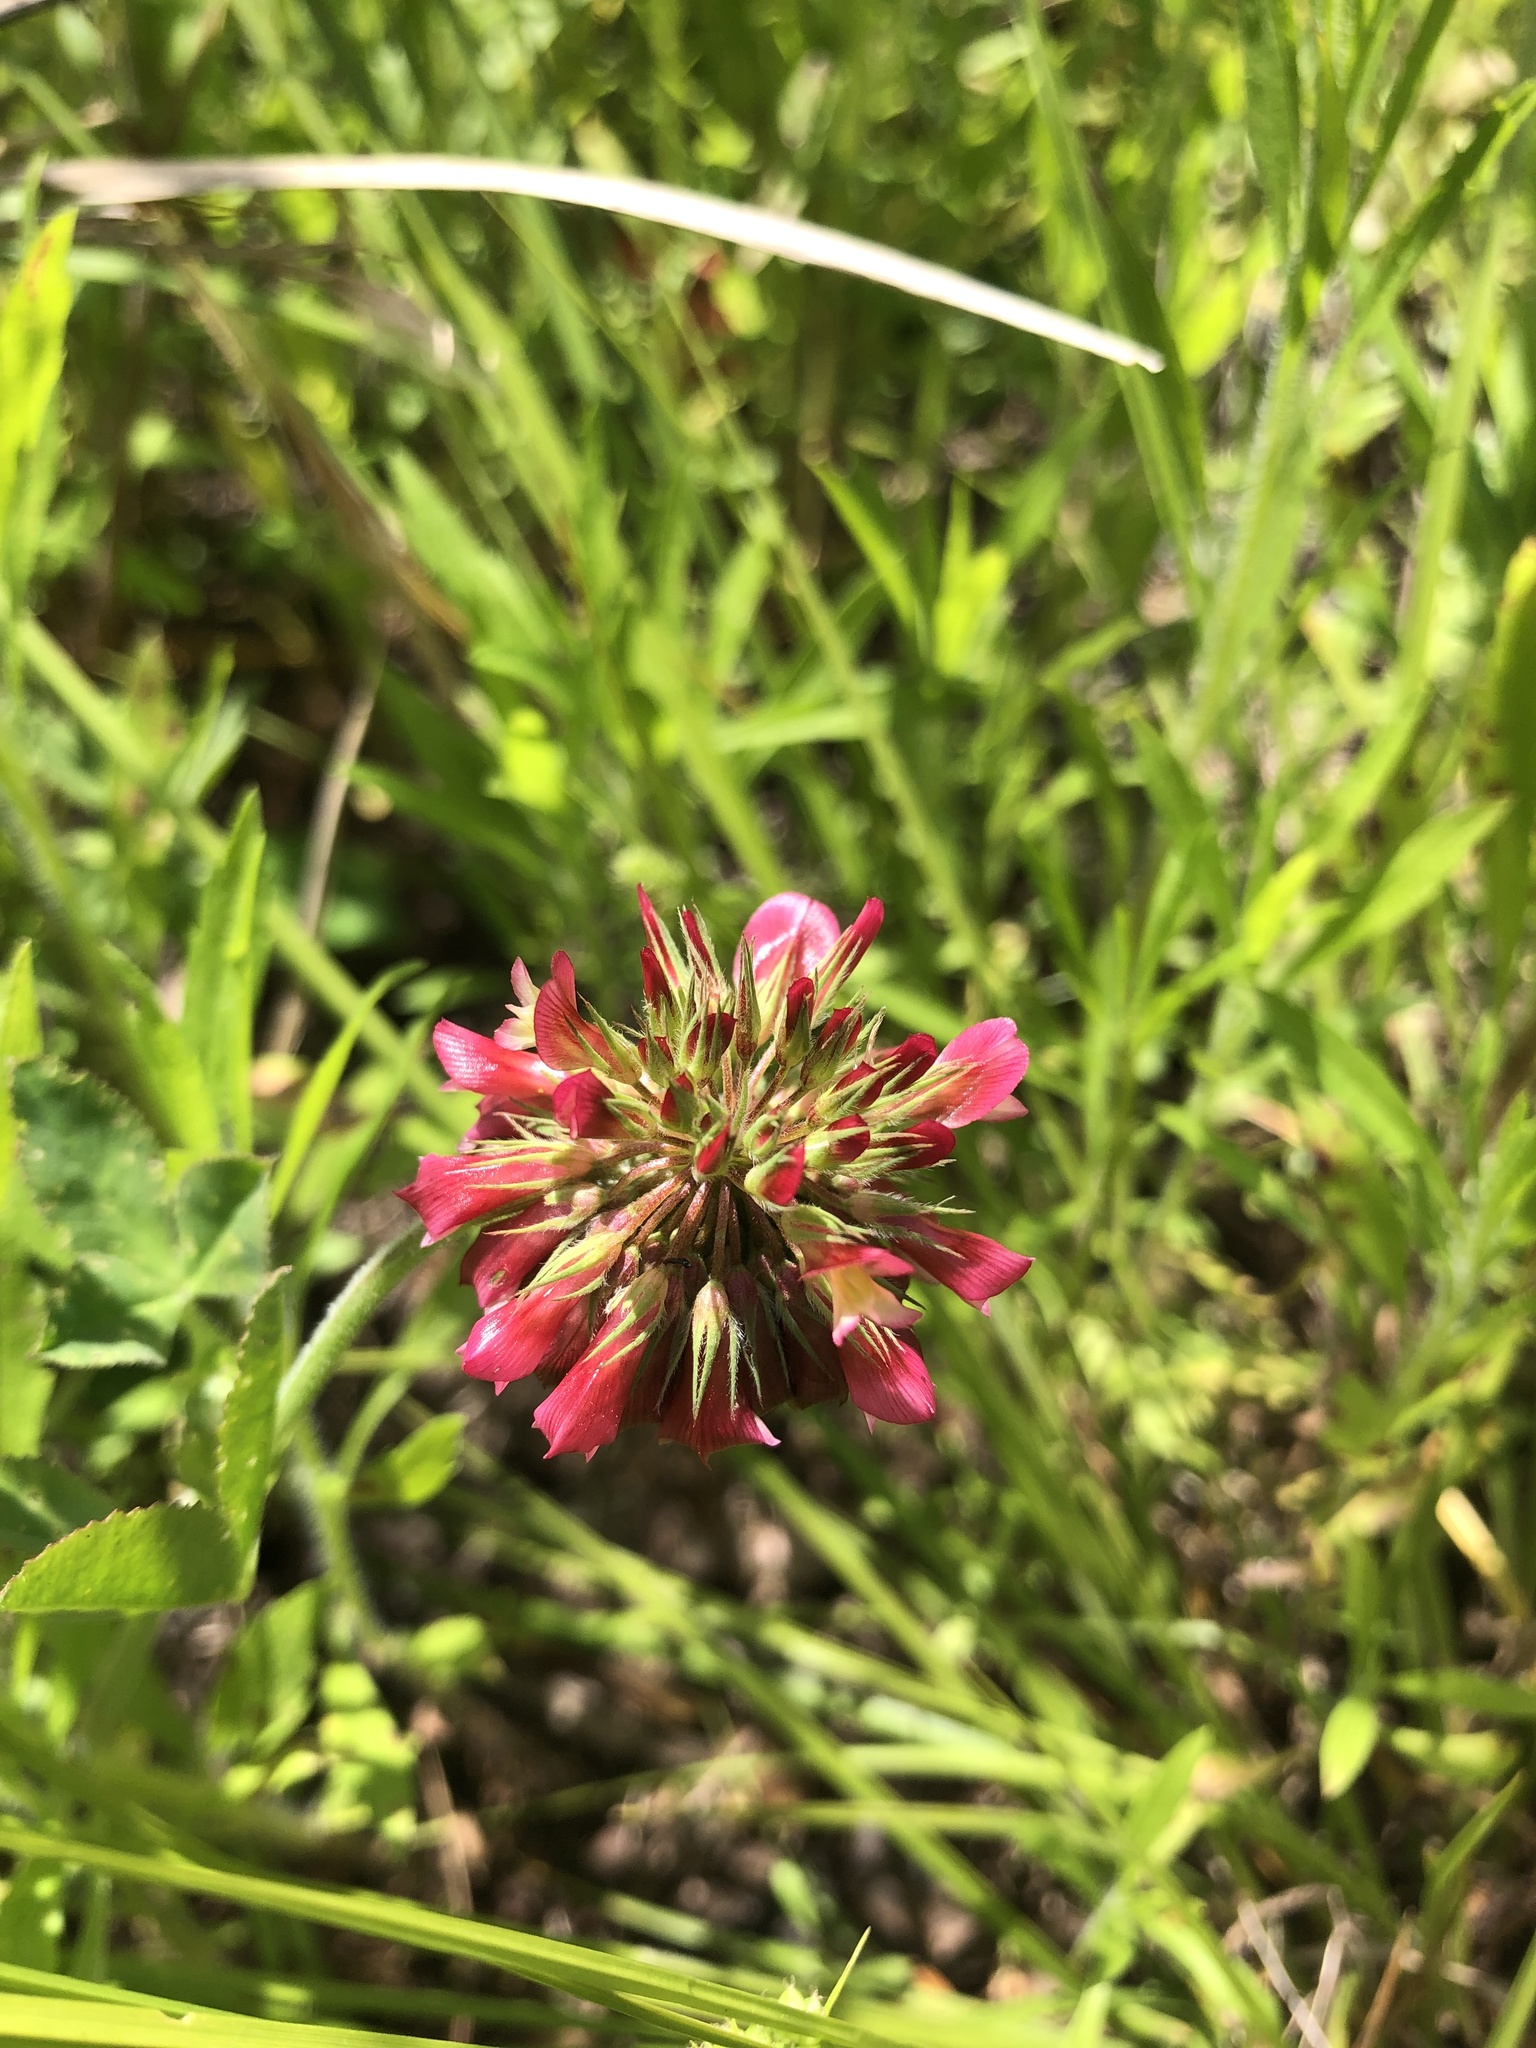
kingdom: Plantae
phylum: Tracheophyta
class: Magnoliopsida
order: Fabales
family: Fabaceae
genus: Trifolium
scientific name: Trifolium reflexum
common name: Buffalo clover
